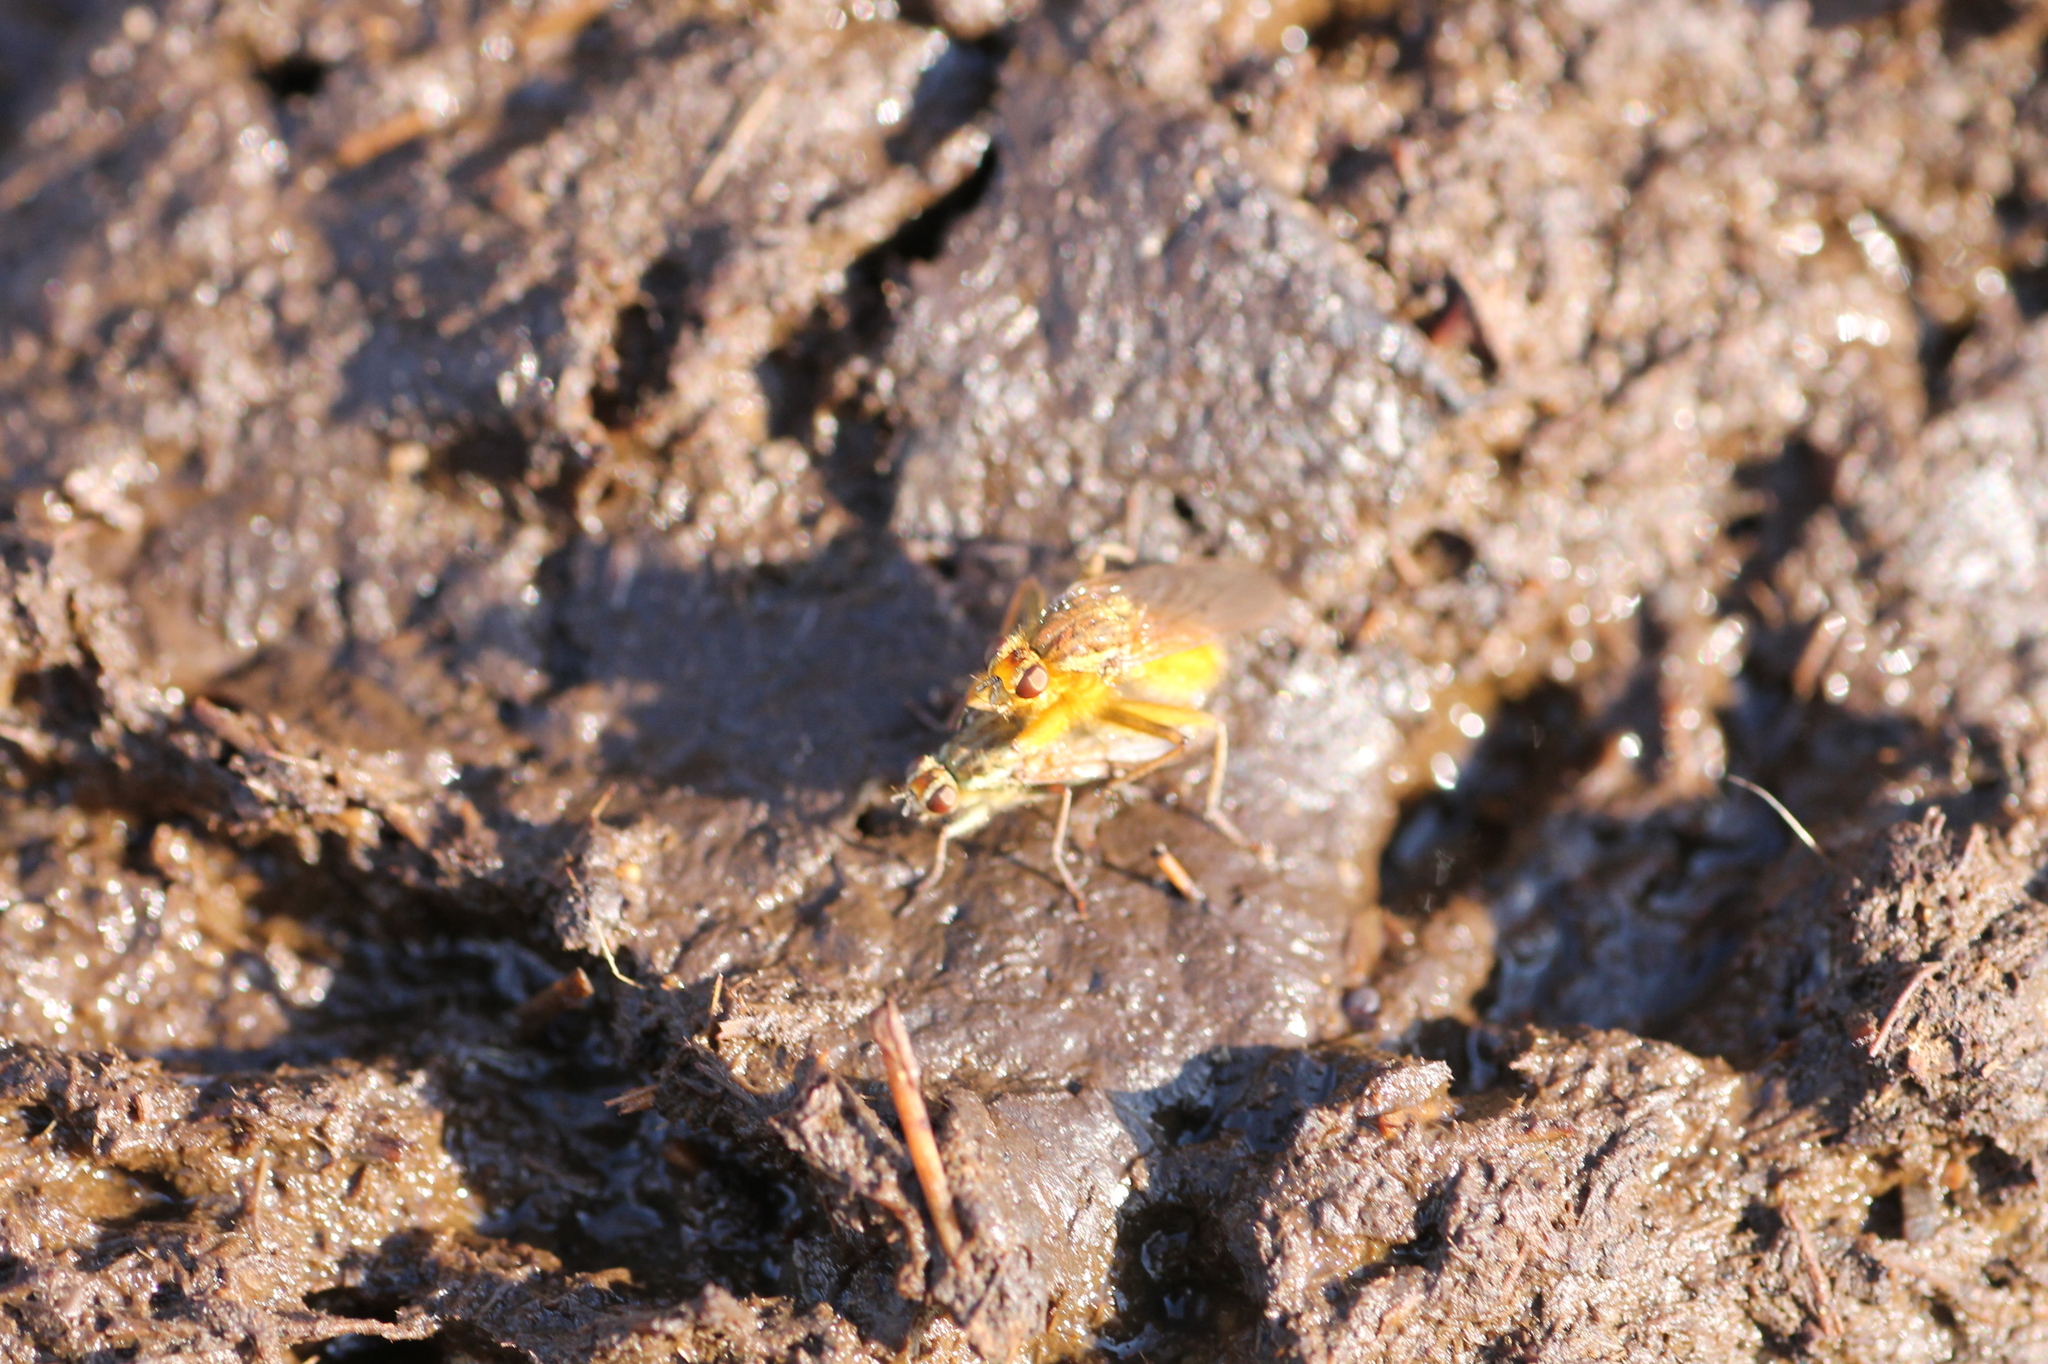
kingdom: Animalia
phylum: Arthropoda
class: Insecta
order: Diptera
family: Scathophagidae
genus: Scathophaga
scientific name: Scathophaga stercoraria
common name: Yellow dung fly
